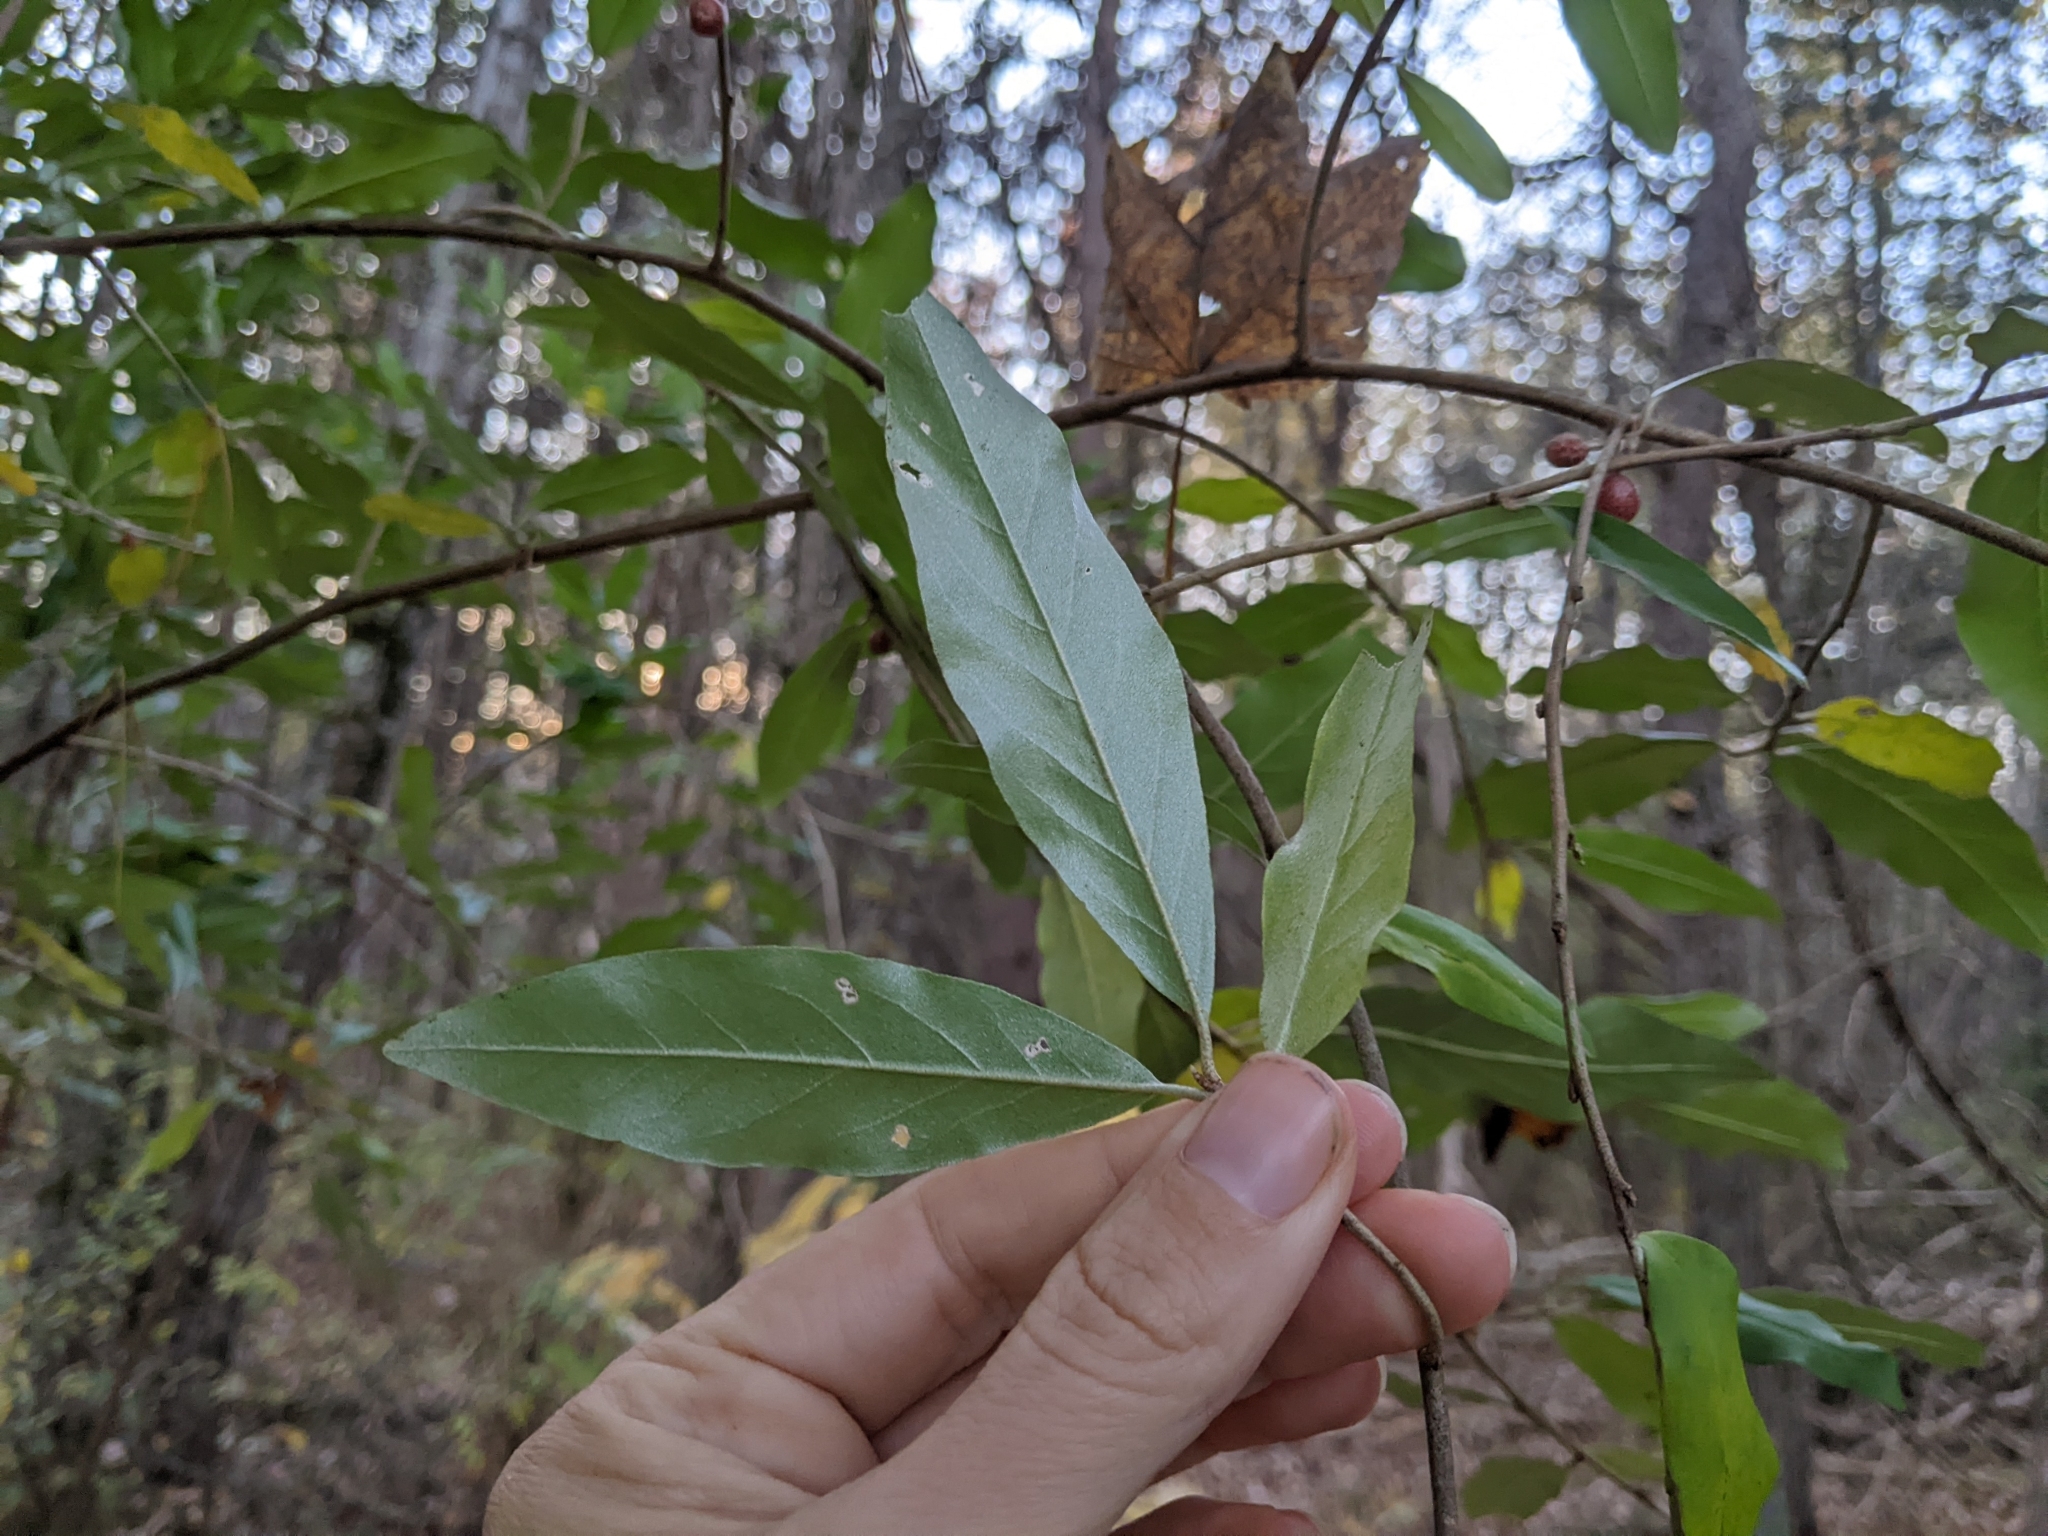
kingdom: Plantae
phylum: Tracheophyta
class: Magnoliopsida
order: Rosales
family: Elaeagnaceae
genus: Elaeagnus
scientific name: Elaeagnus umbellata
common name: Autumn olive
